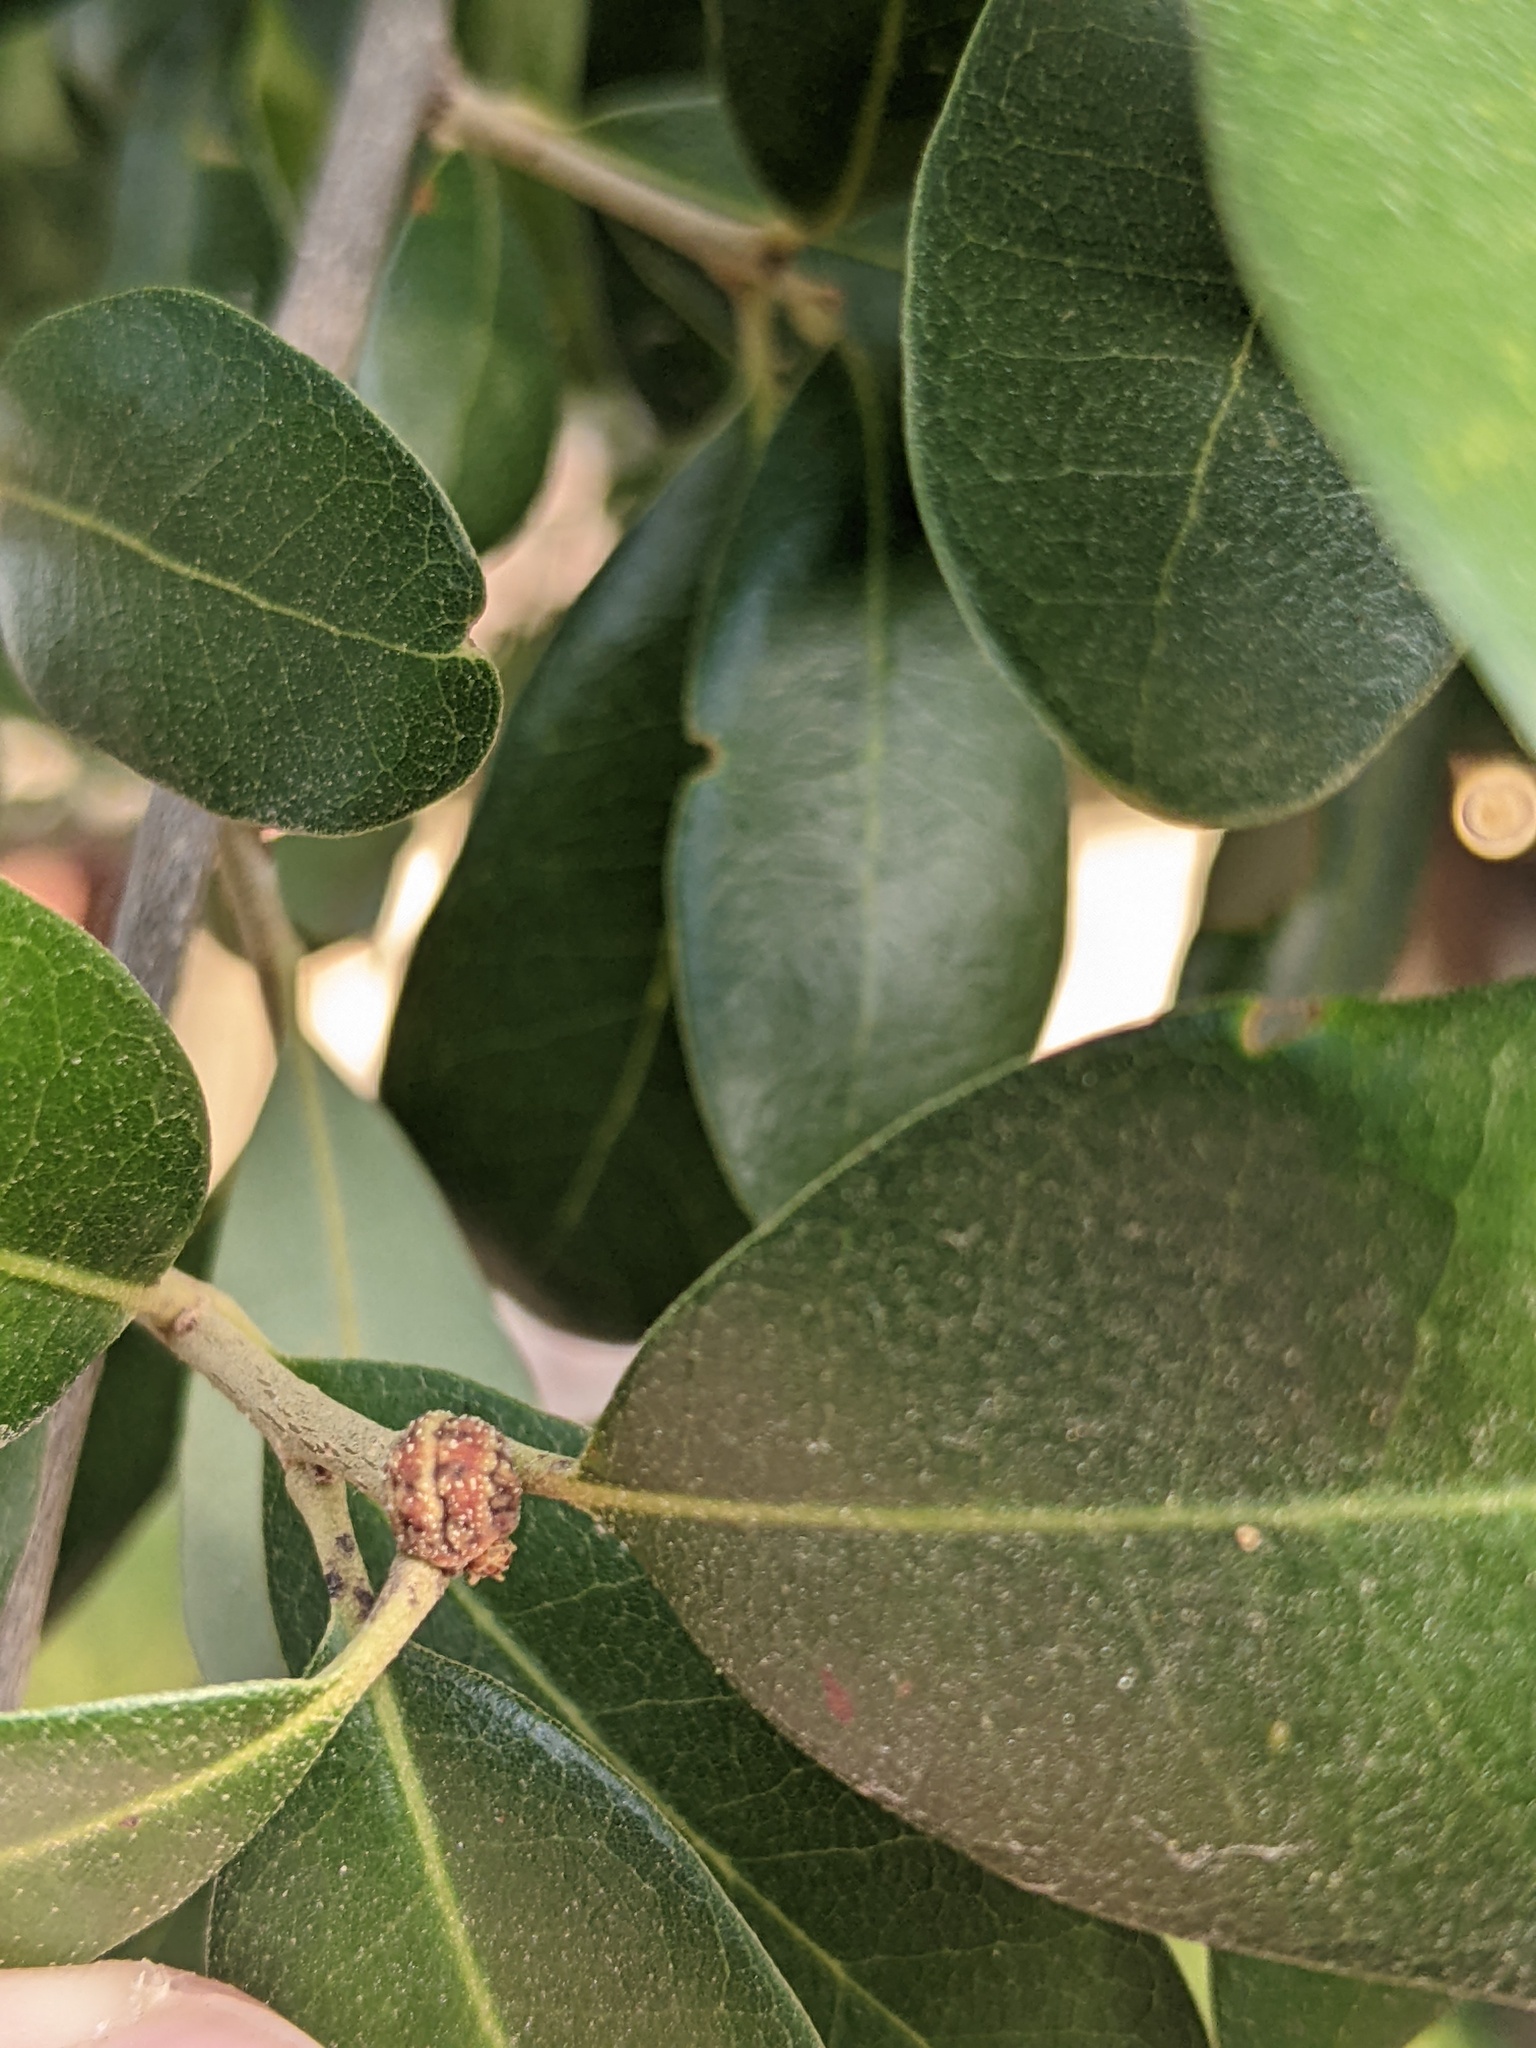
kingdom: Animalia
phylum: Arthropoda
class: Insecta
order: Hemiptera
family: Kermesidae
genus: Allokermes
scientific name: Allokermes cueroensis
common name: Live oak kermes
